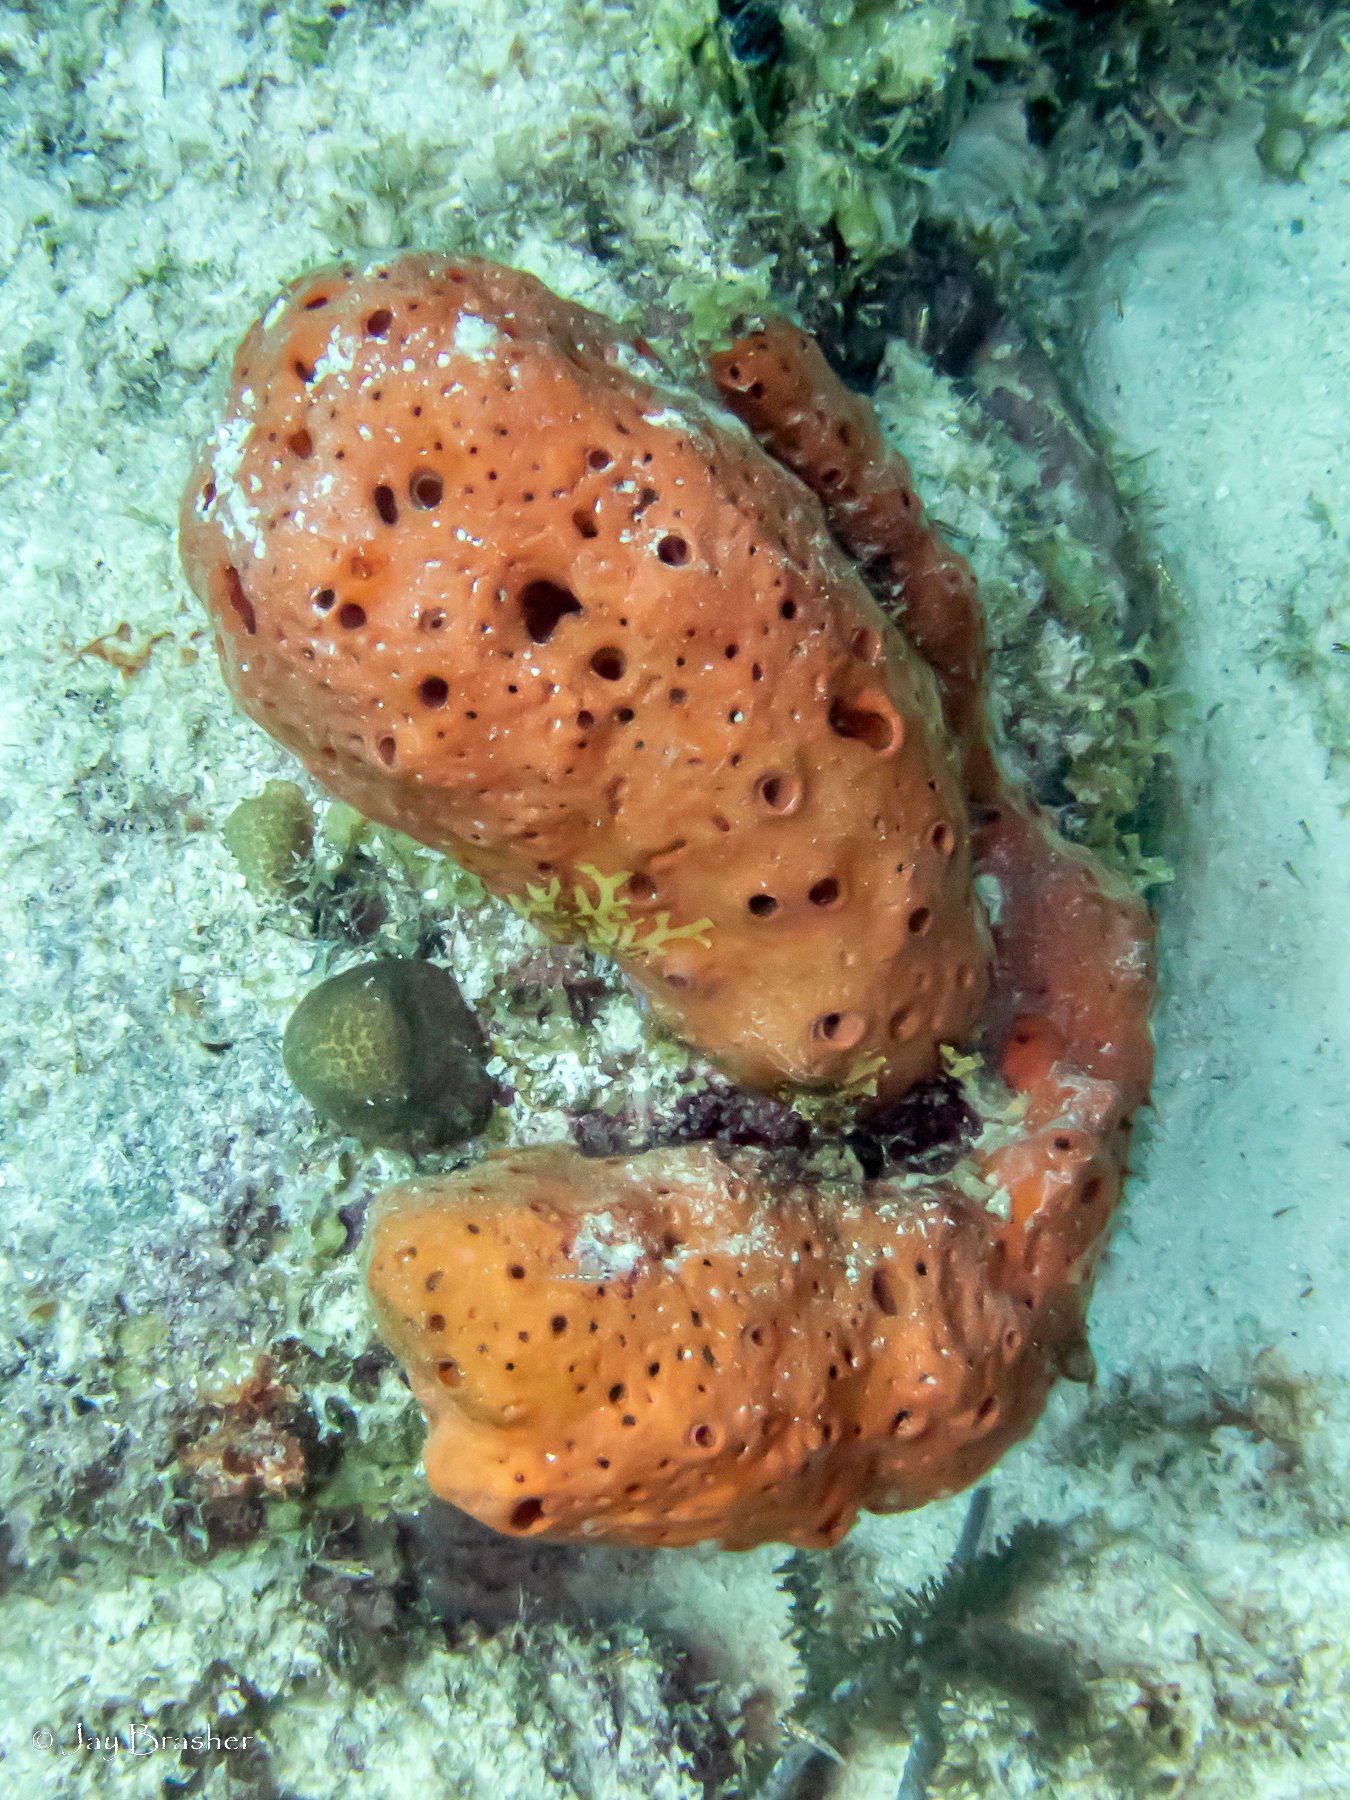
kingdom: Animalia
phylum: Porifera
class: Demospongiae
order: Agelasida
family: Agelasidae
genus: Agelas
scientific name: Agelas sventres
